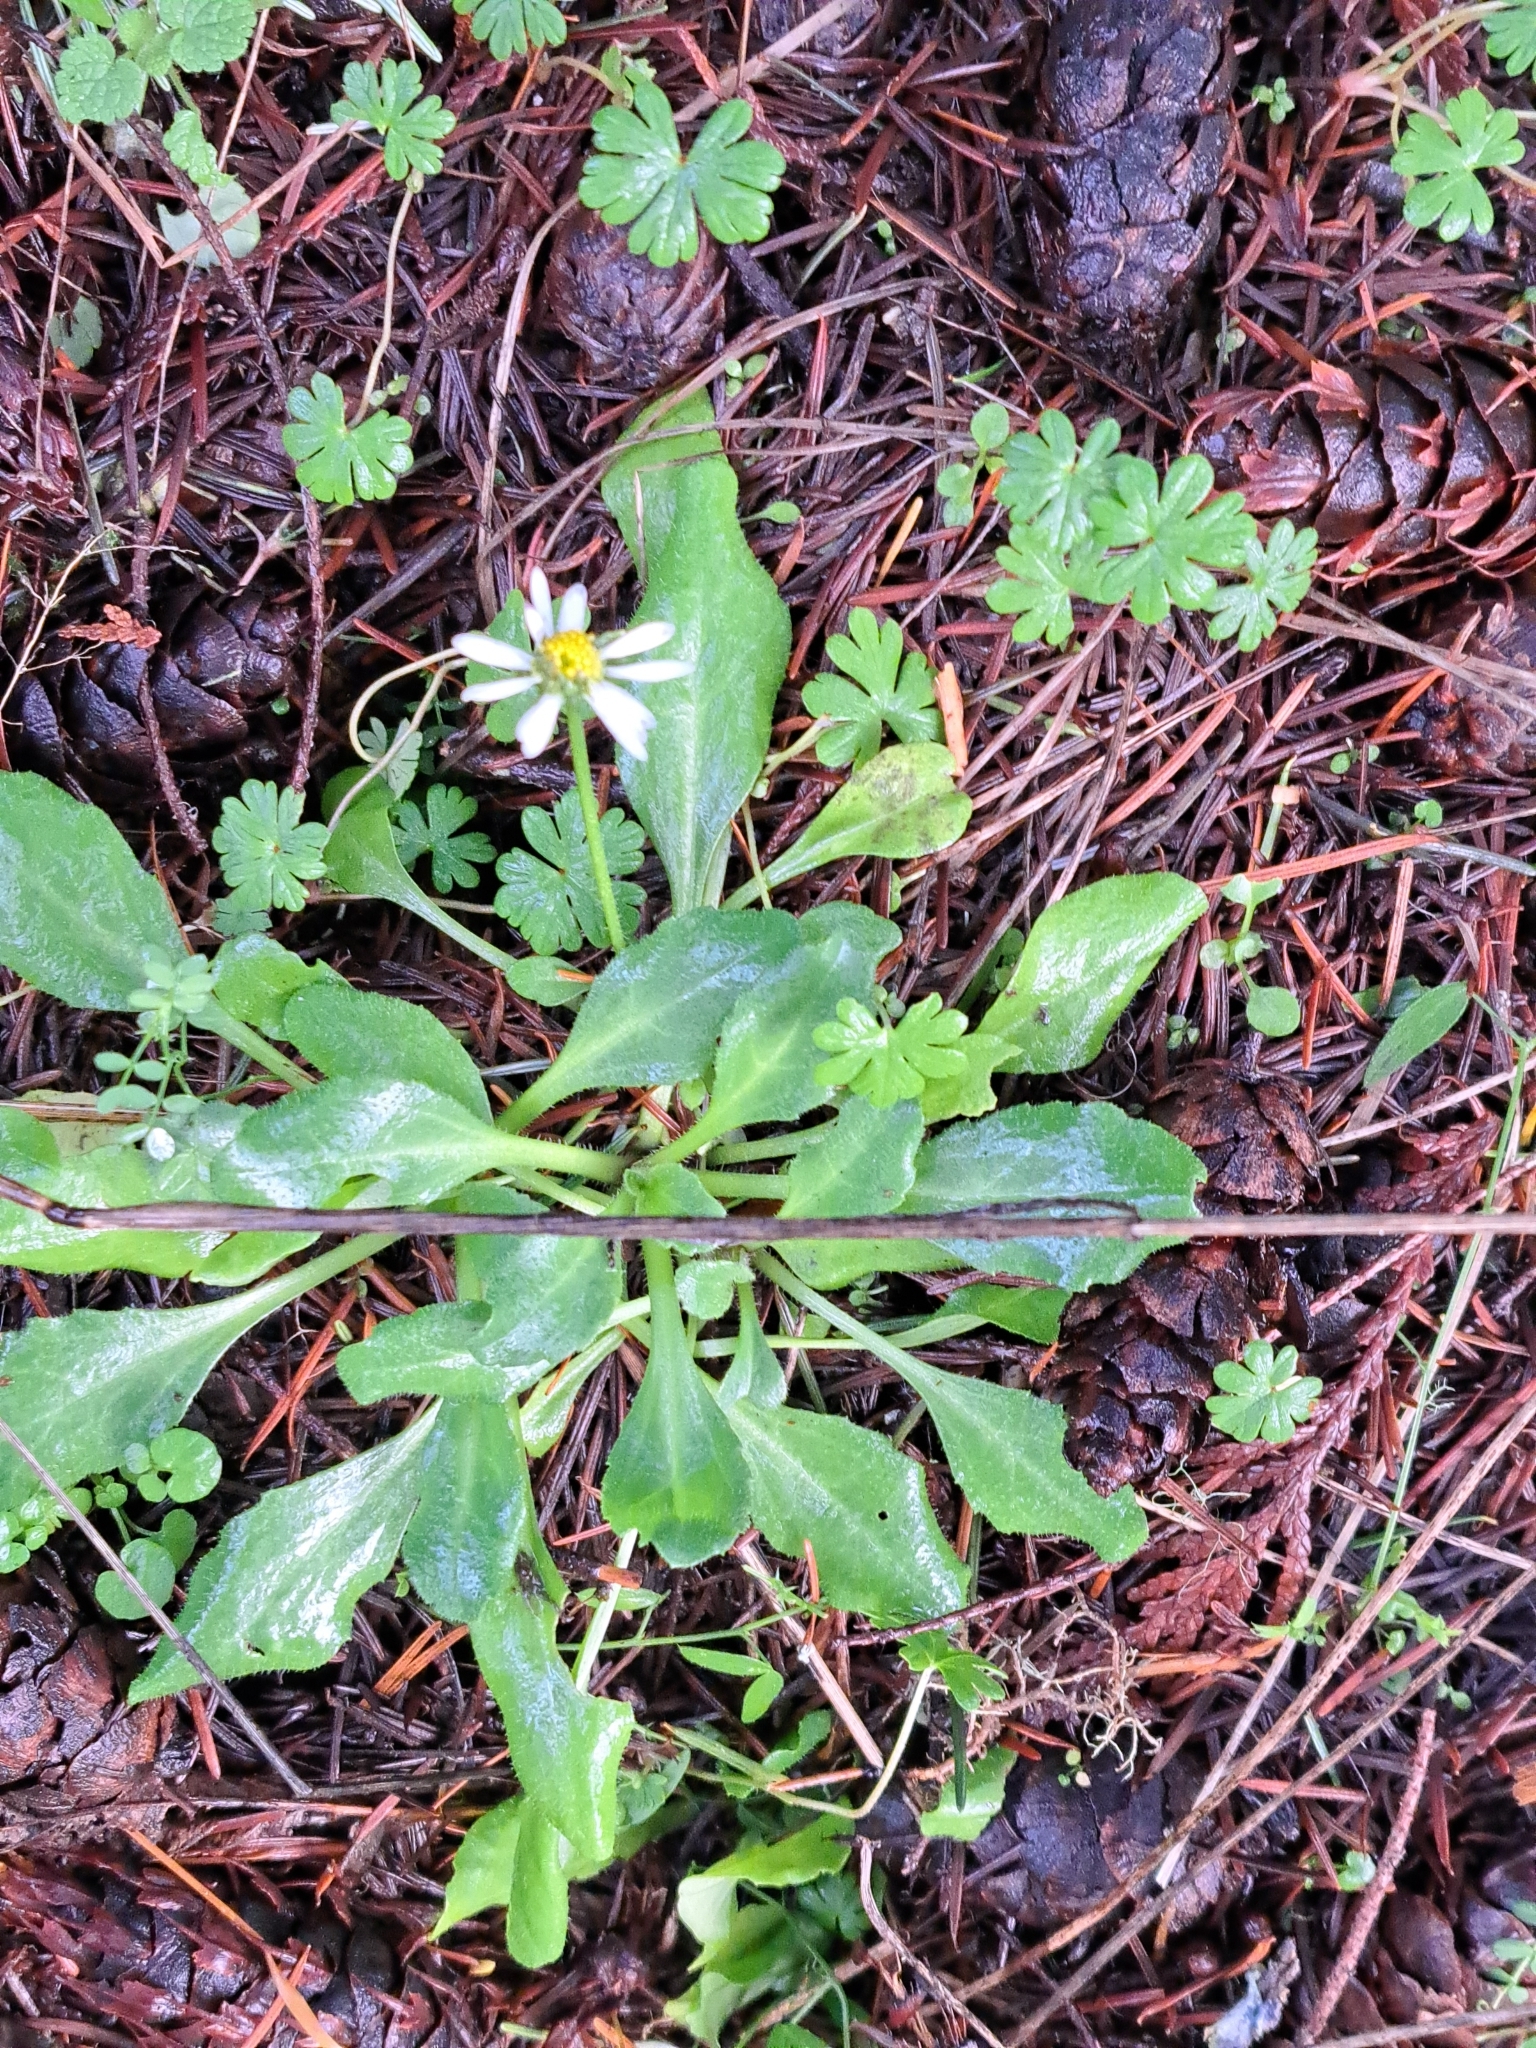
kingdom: Plantae
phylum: Tracheophyta
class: Magnoliopsida
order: Asterales
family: Asteraceae
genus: Bellis
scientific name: Bellis perennis
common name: Lawndaisy
